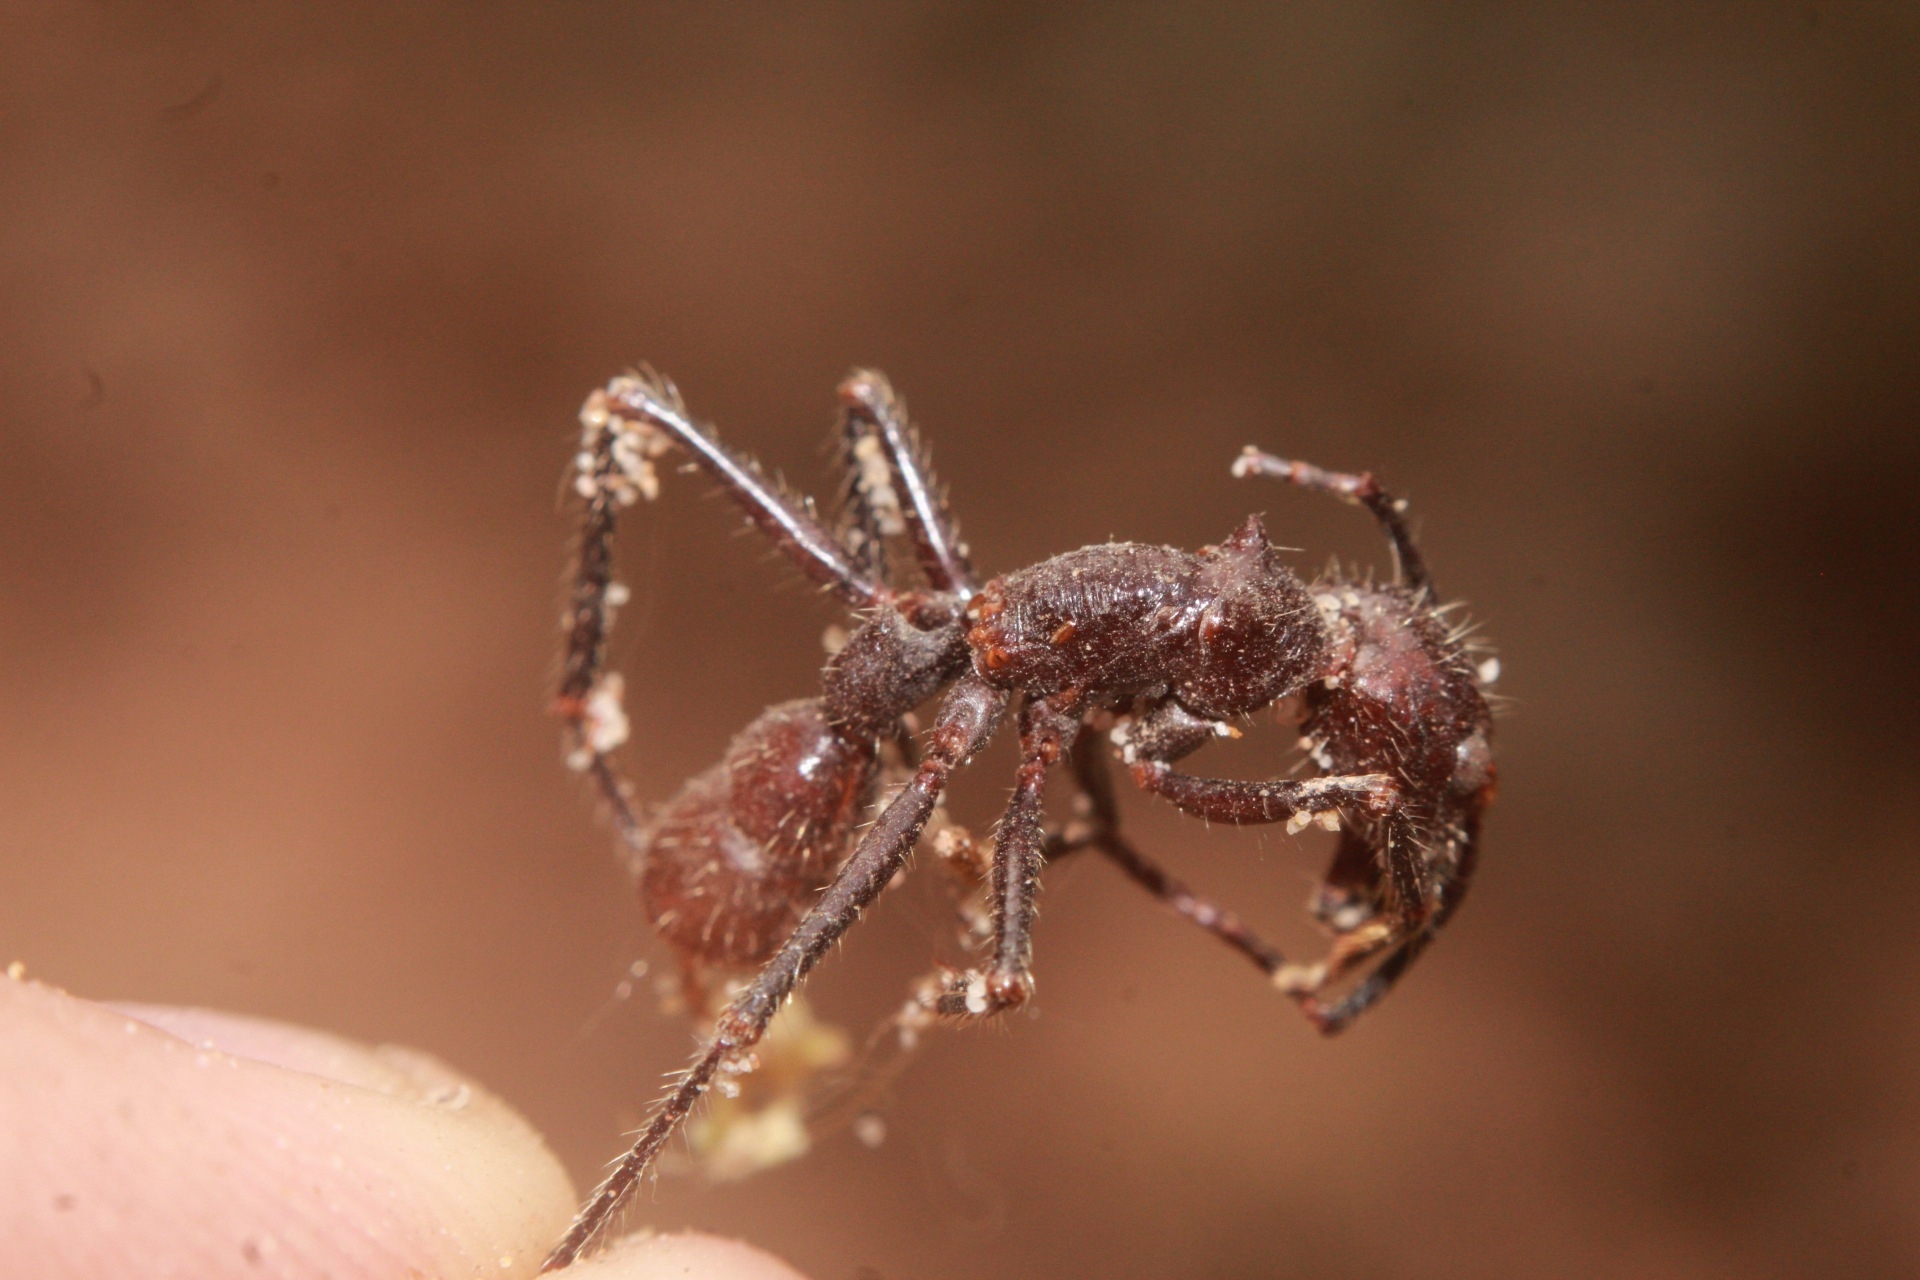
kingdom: Animalia
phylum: Arthropoda
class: Insecta
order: Hymenoptera
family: Formicidae
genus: Paraponera
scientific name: Paraponera clavata
